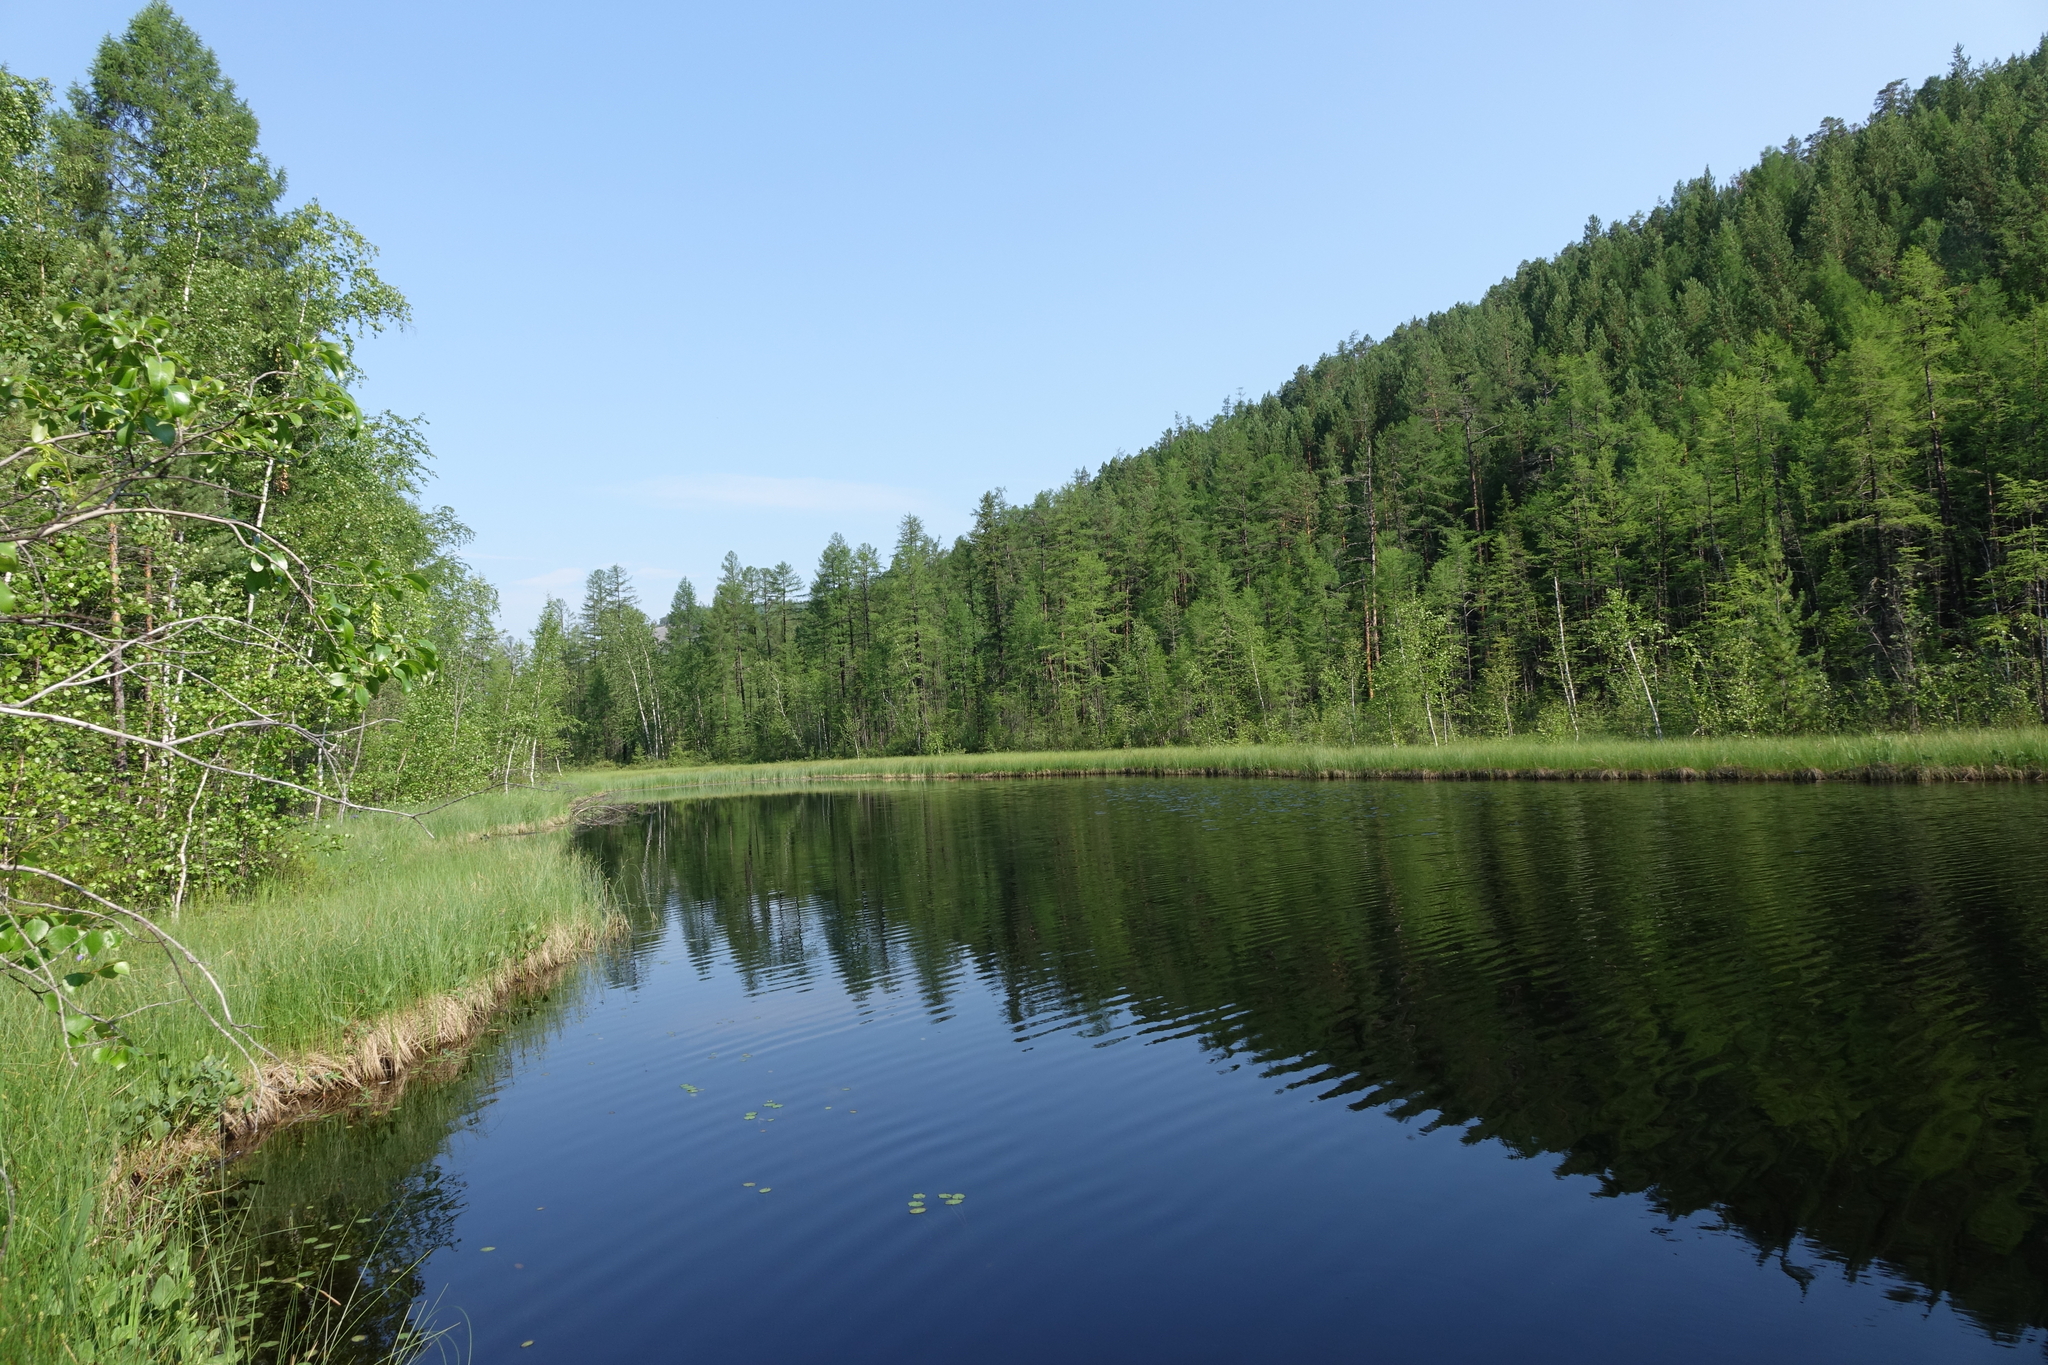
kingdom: Plantae
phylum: Tracheophyta
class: Pinopsida
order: Pinales
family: Pinaceae
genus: Larix
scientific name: Larix gmelinii
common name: Dahurian larch
